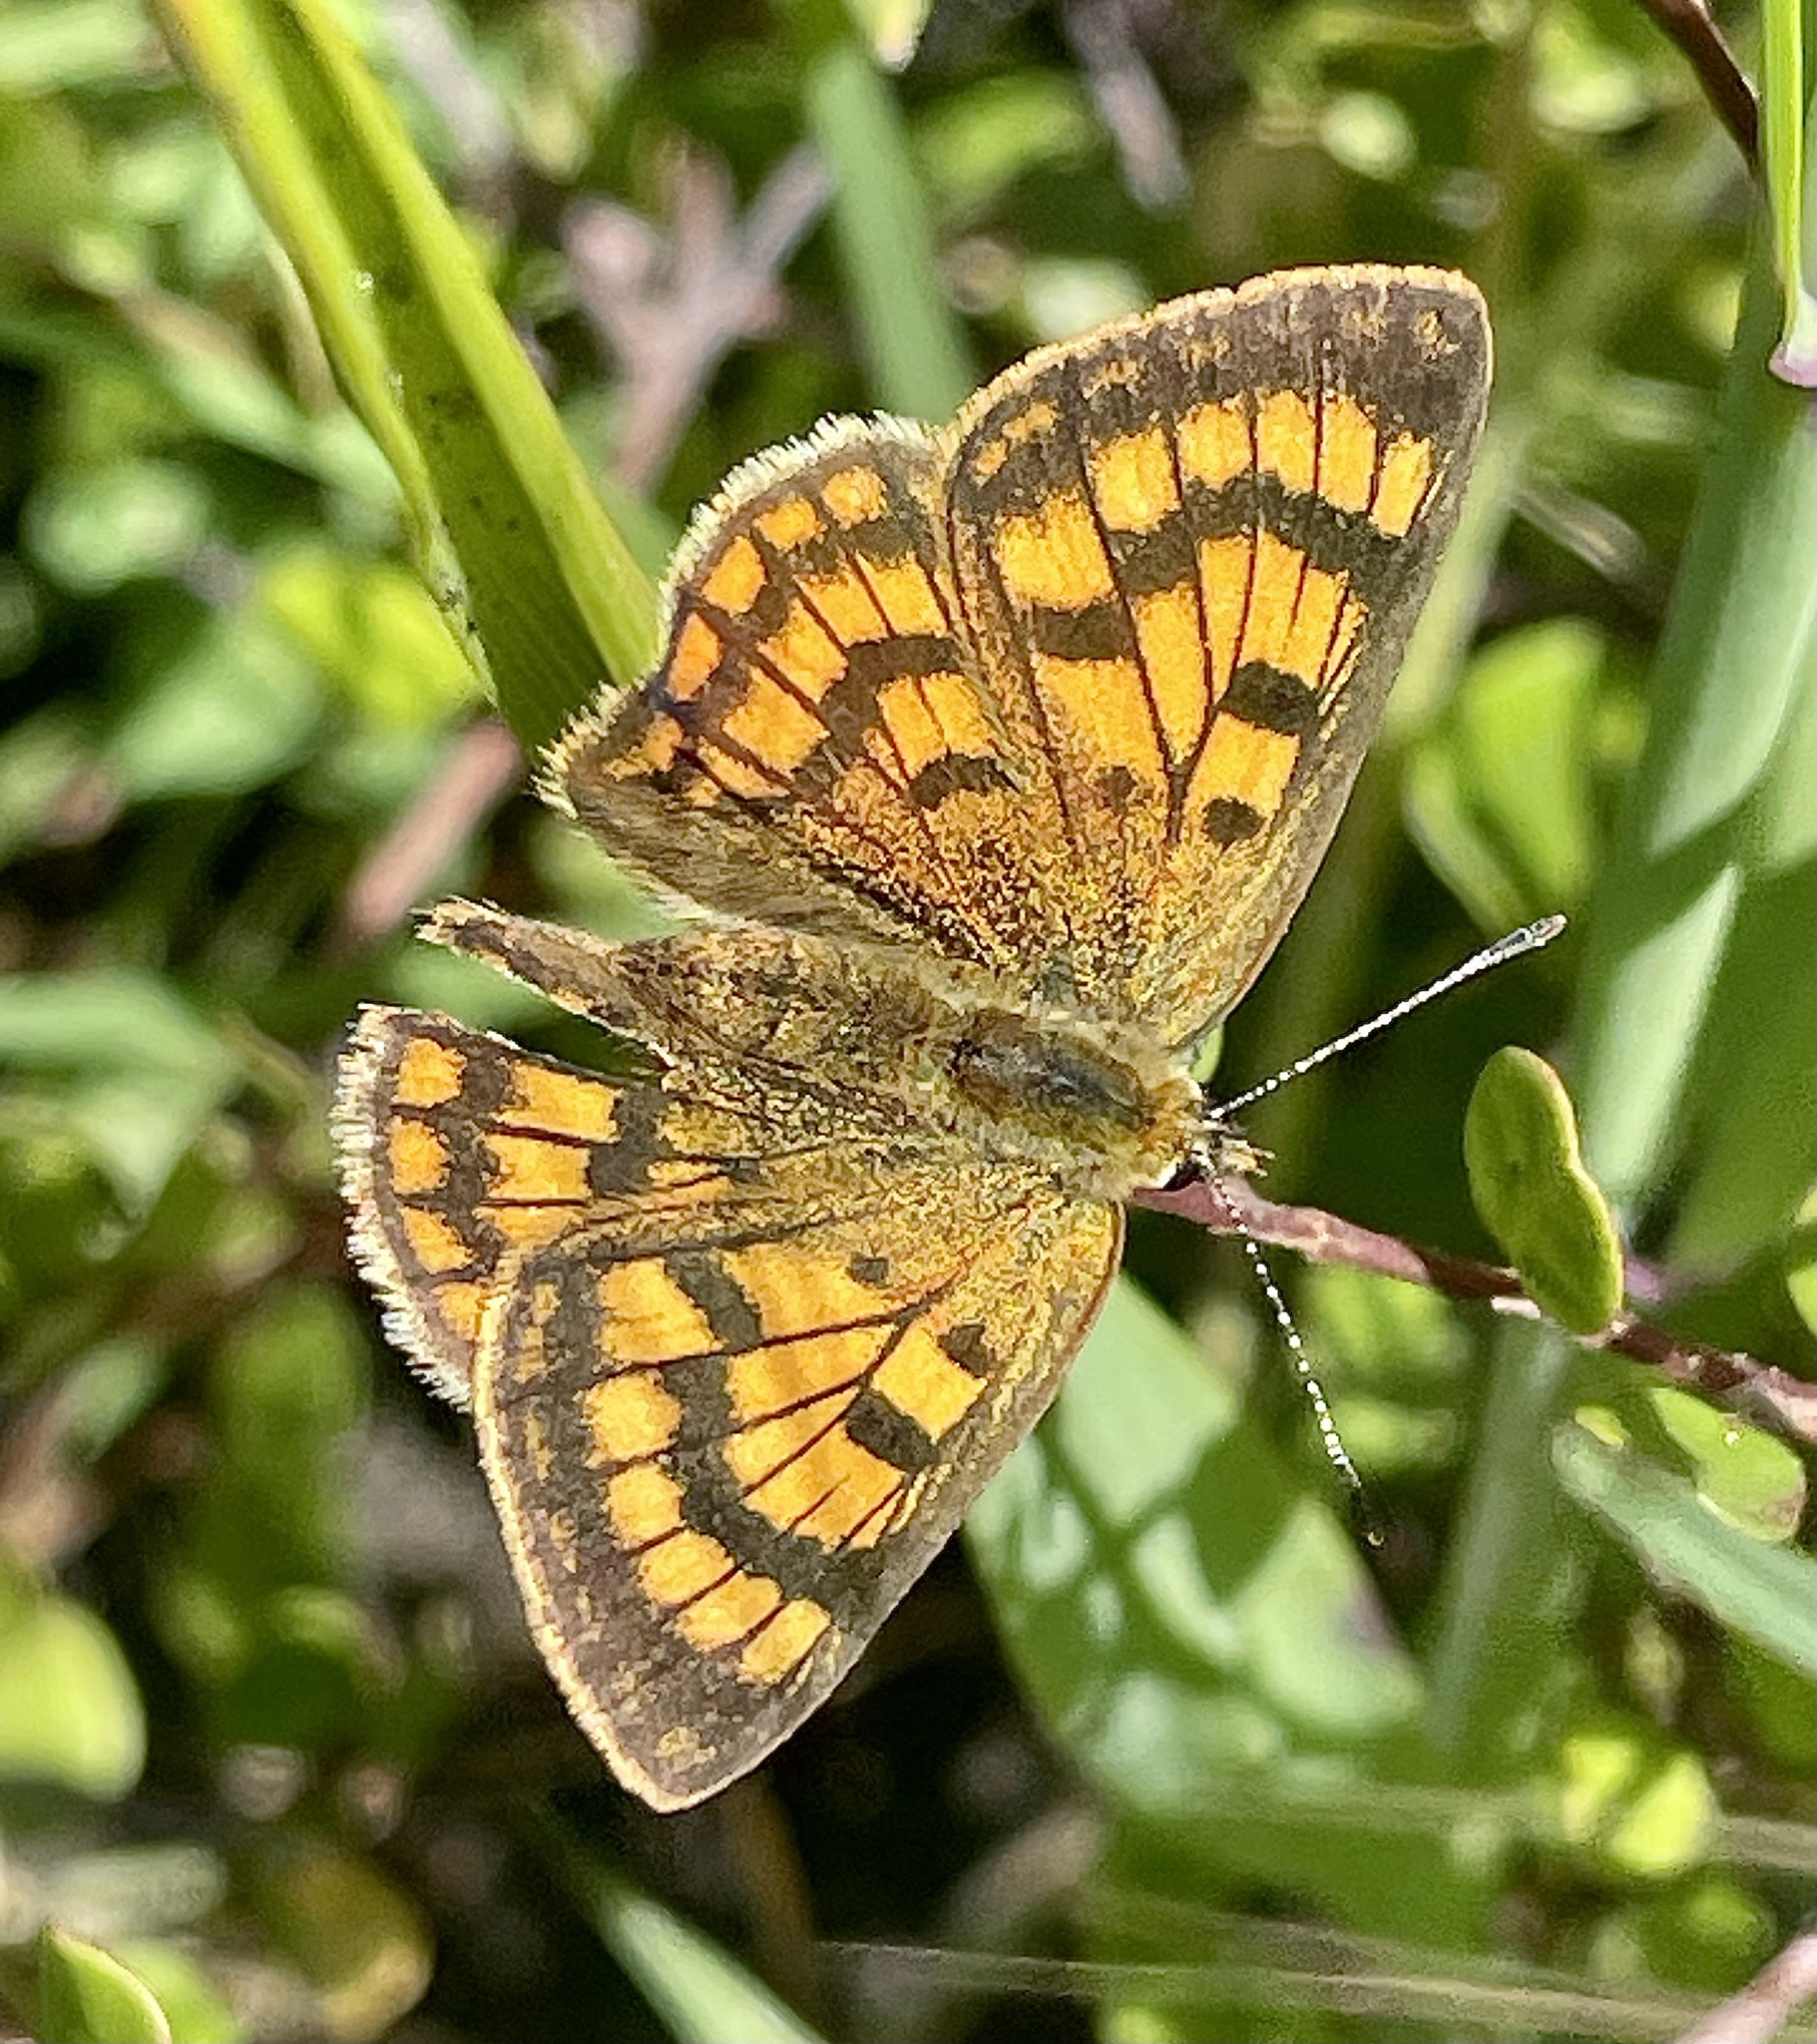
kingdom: Animalia
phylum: Arthropoda
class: Insecta
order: Lepidoptera
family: Lycaenidae
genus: Lycaena
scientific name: Lycaena salustius
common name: North island coastal copper
